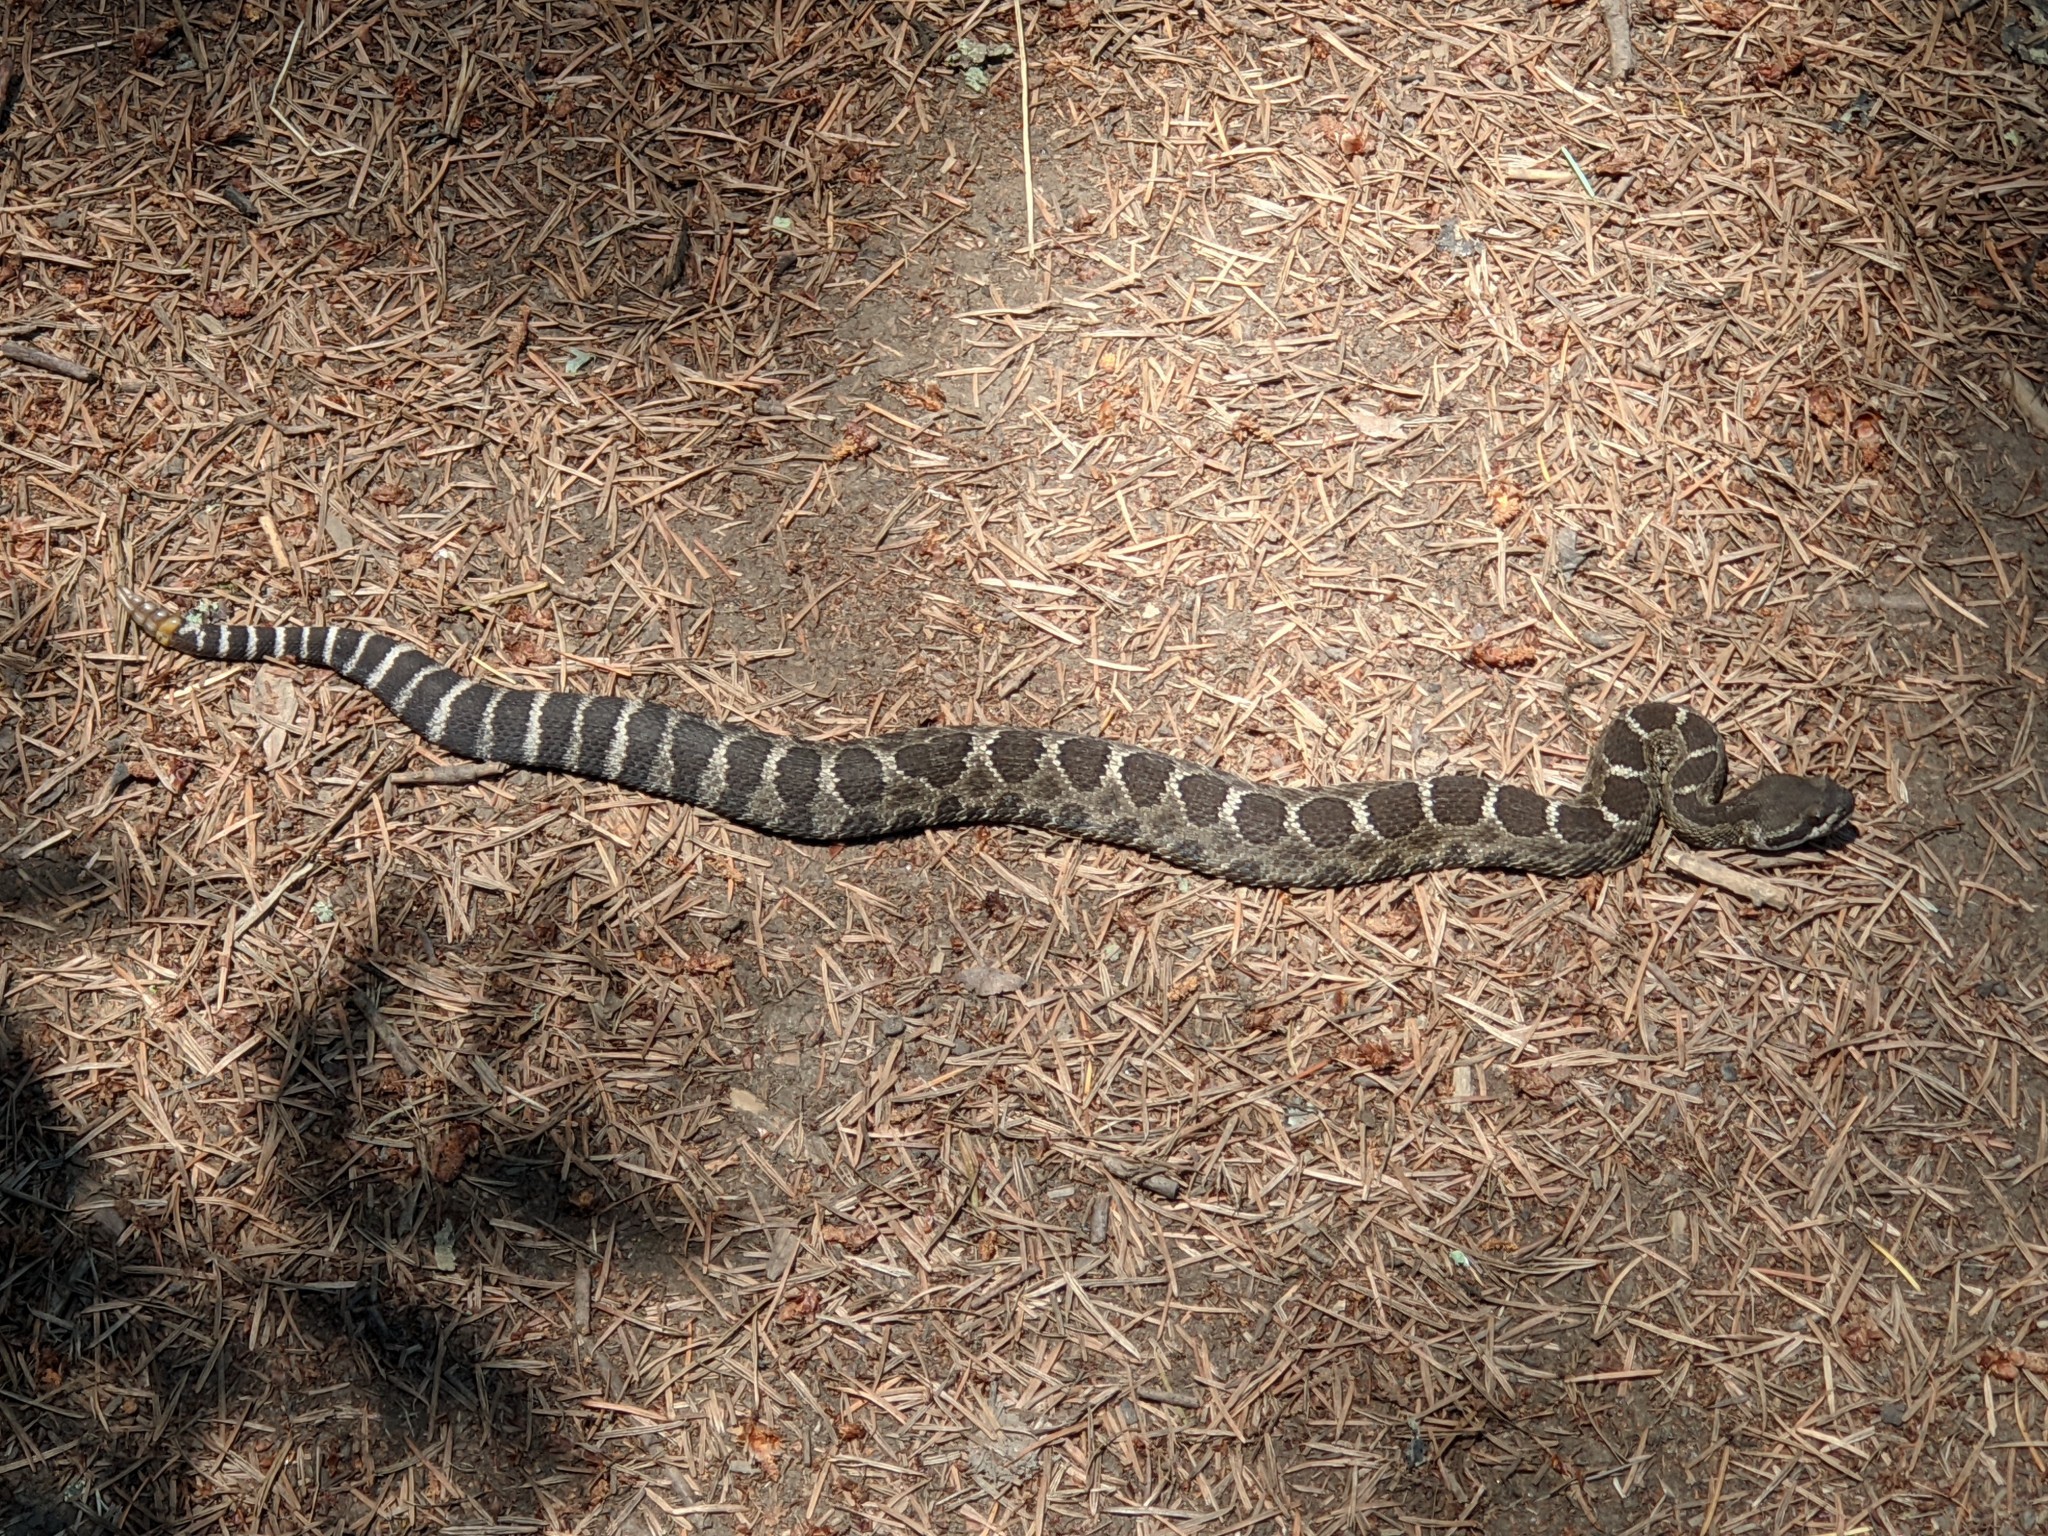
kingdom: Animalia
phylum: Chordata
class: Squamata
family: Viperidae
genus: Crotalus
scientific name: Crotalus oreganus
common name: Abyssus
